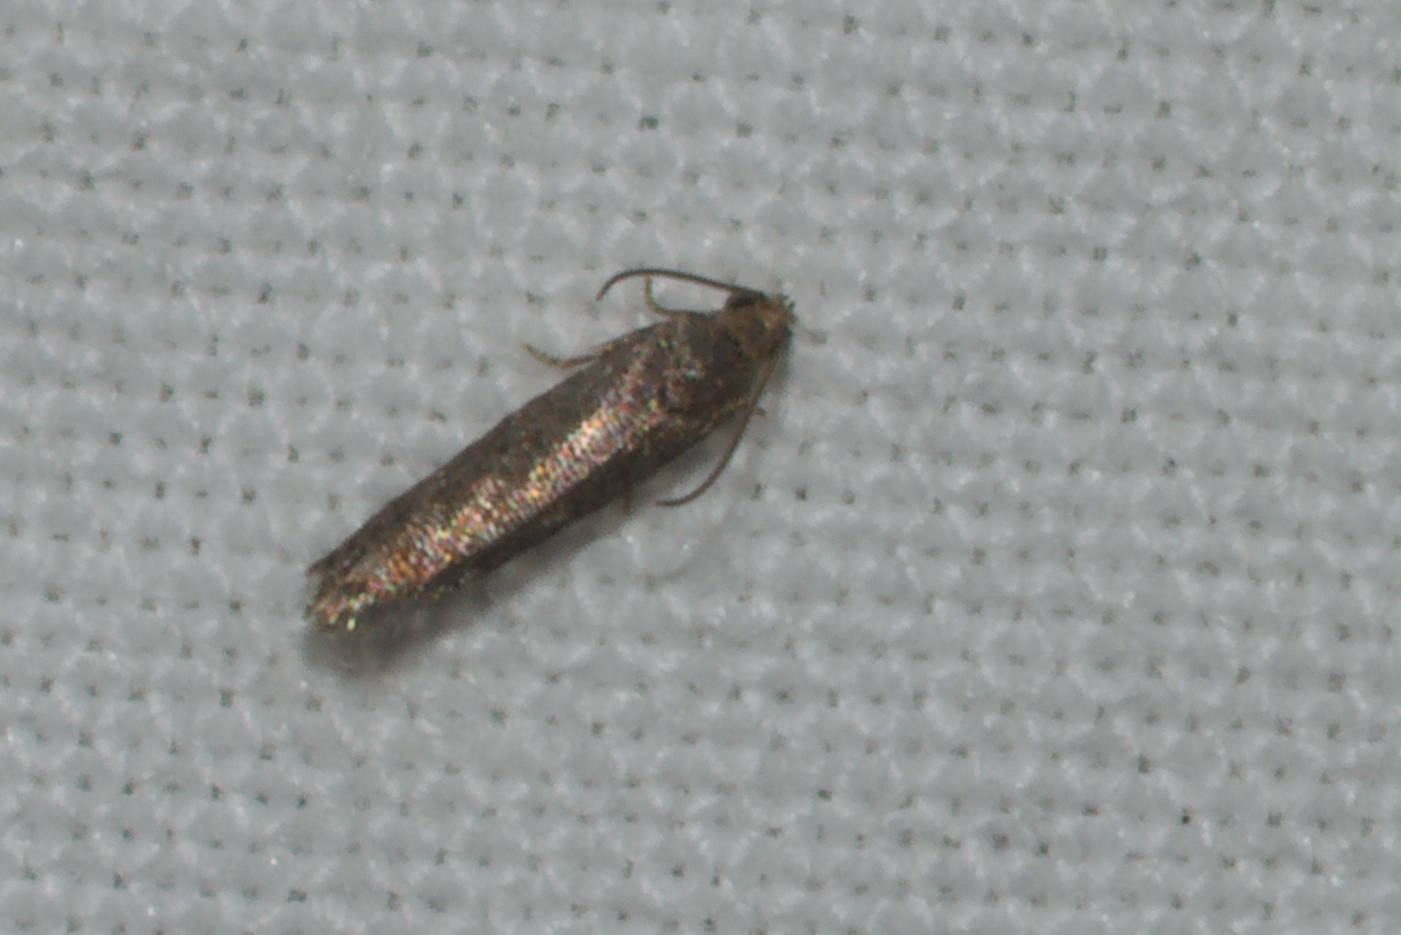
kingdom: Animalia
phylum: Arthropoda
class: Insecta
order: Lepidoptera
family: Tortricidae
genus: Cydia
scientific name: Cydia montanum
